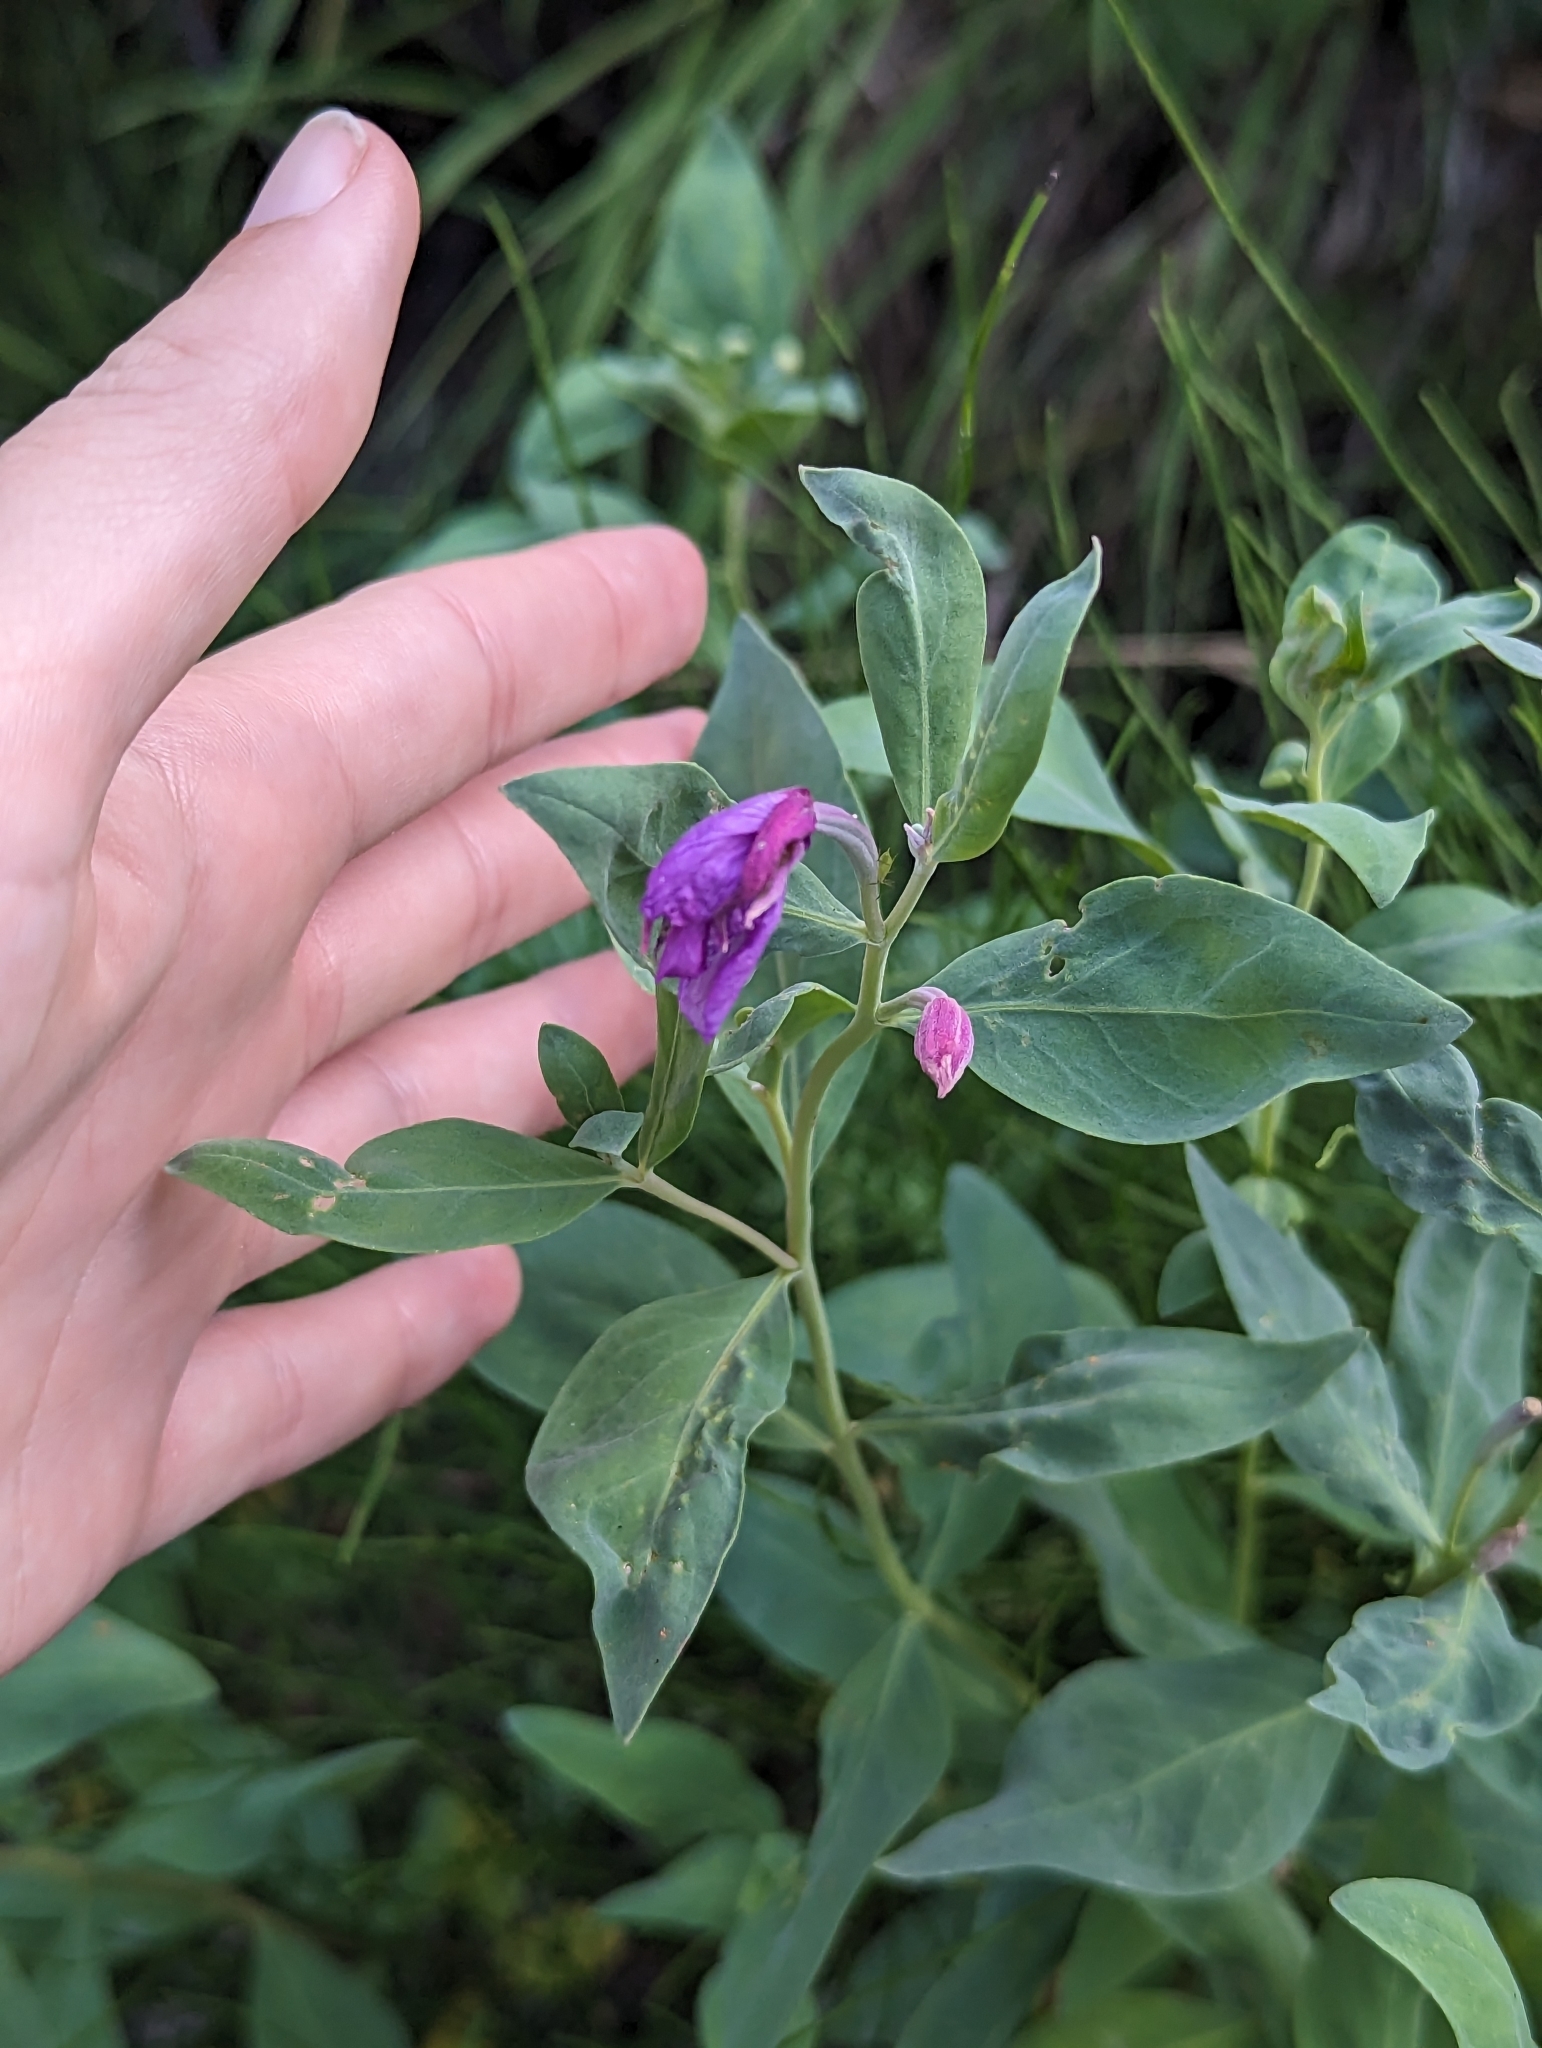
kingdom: Plantae
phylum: Tracheophyta
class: Magnoliopsida
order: Myrtales
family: Onagraceae
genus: Chamaenerion
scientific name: Chamaenerion latifolium
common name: Dwarf fireweed
